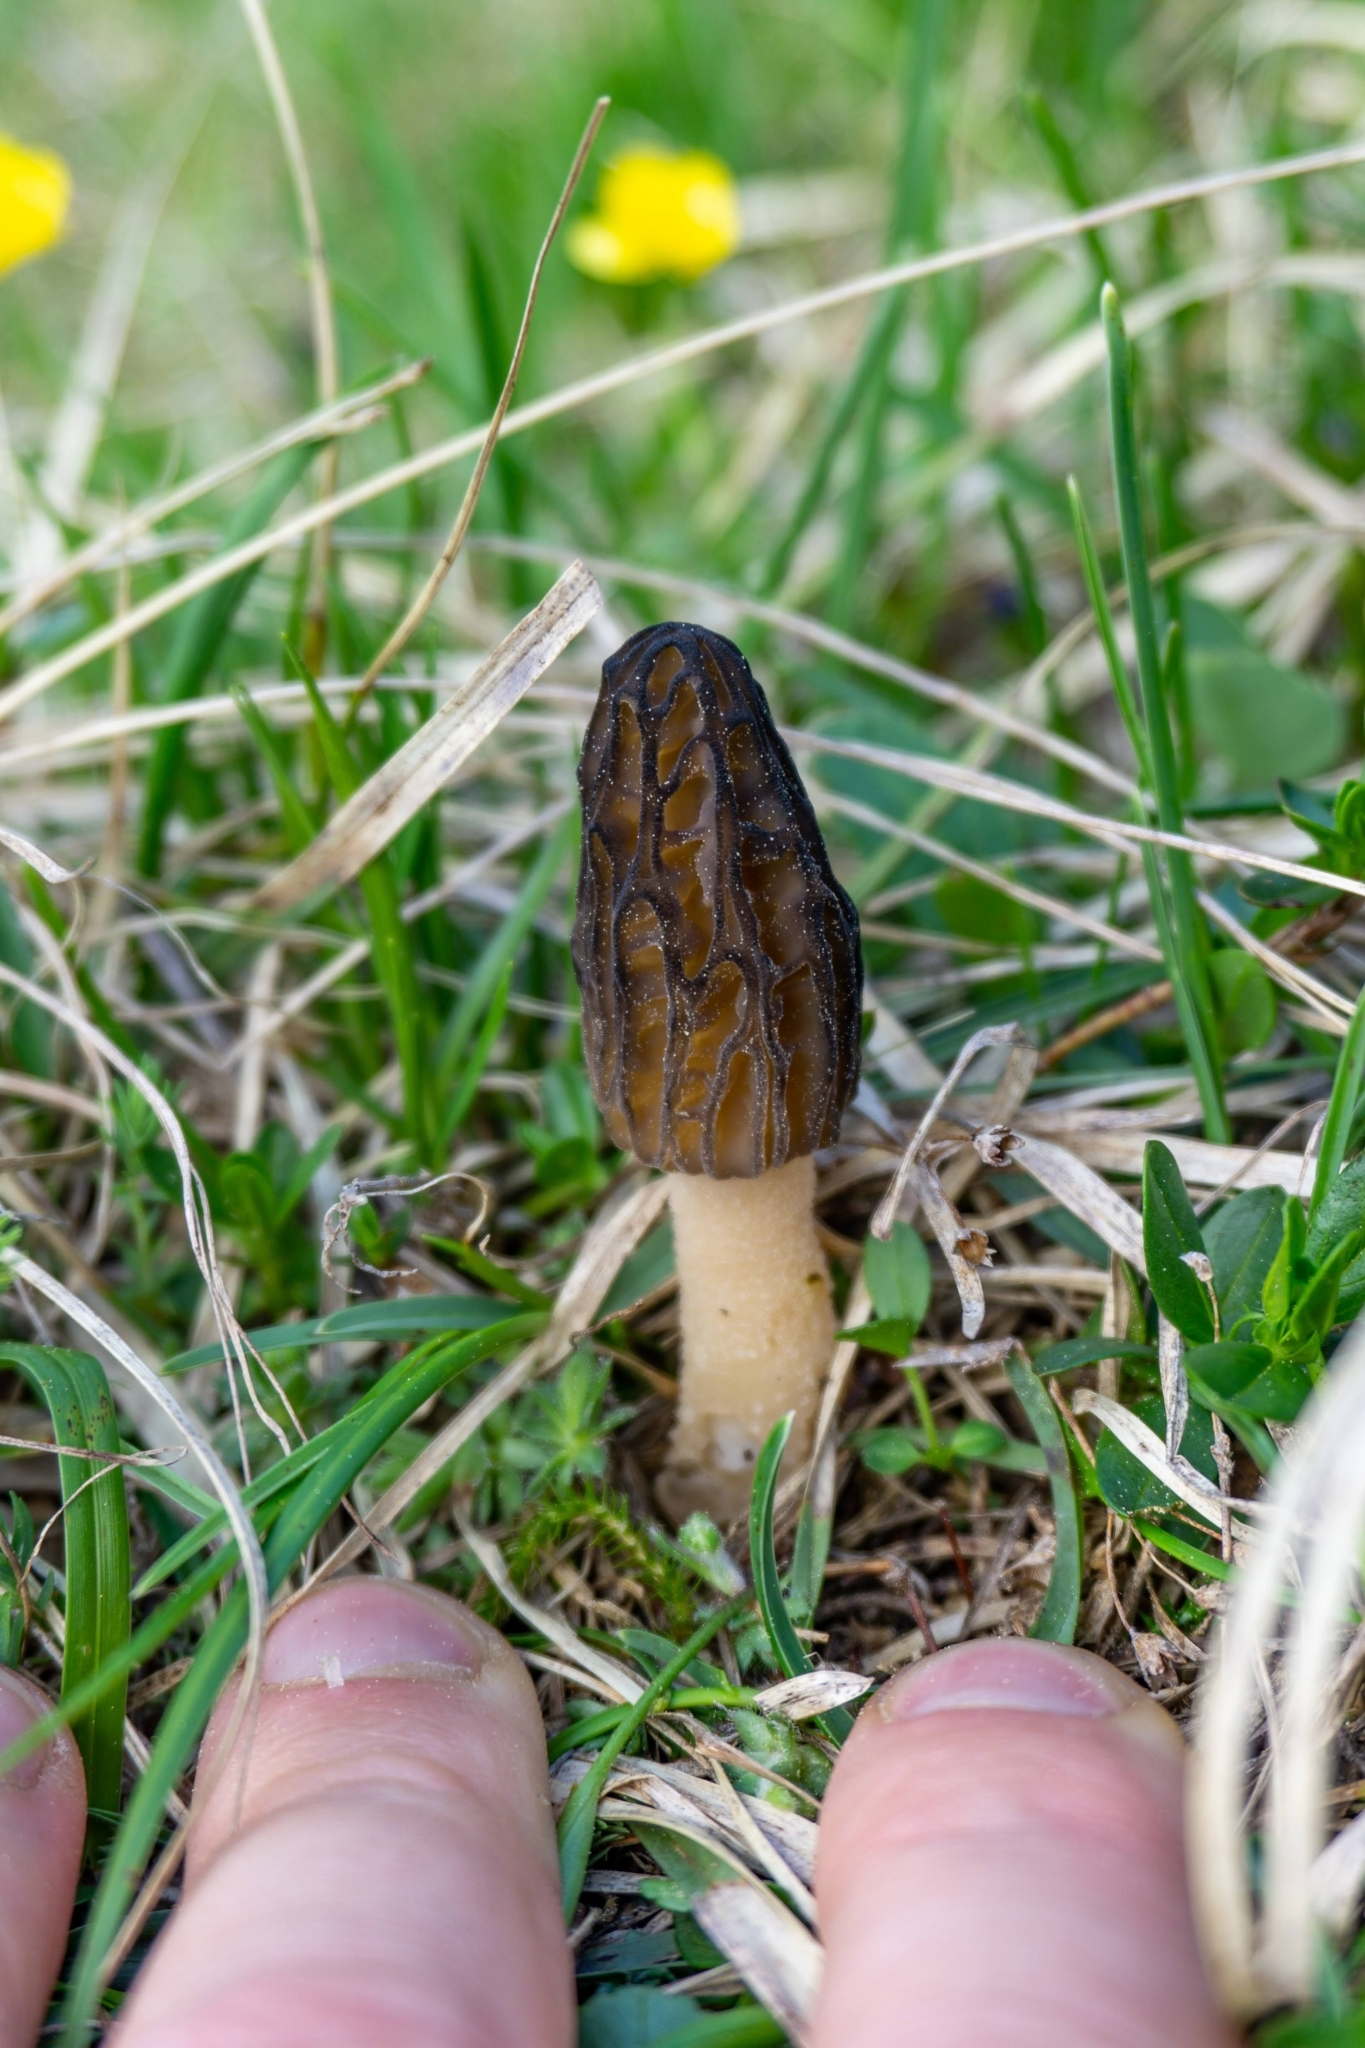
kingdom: Fungi
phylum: Ascomycota
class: Pezizomycetes
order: Pezizales
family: Morchellaceae
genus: Morchella
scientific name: Morchella
